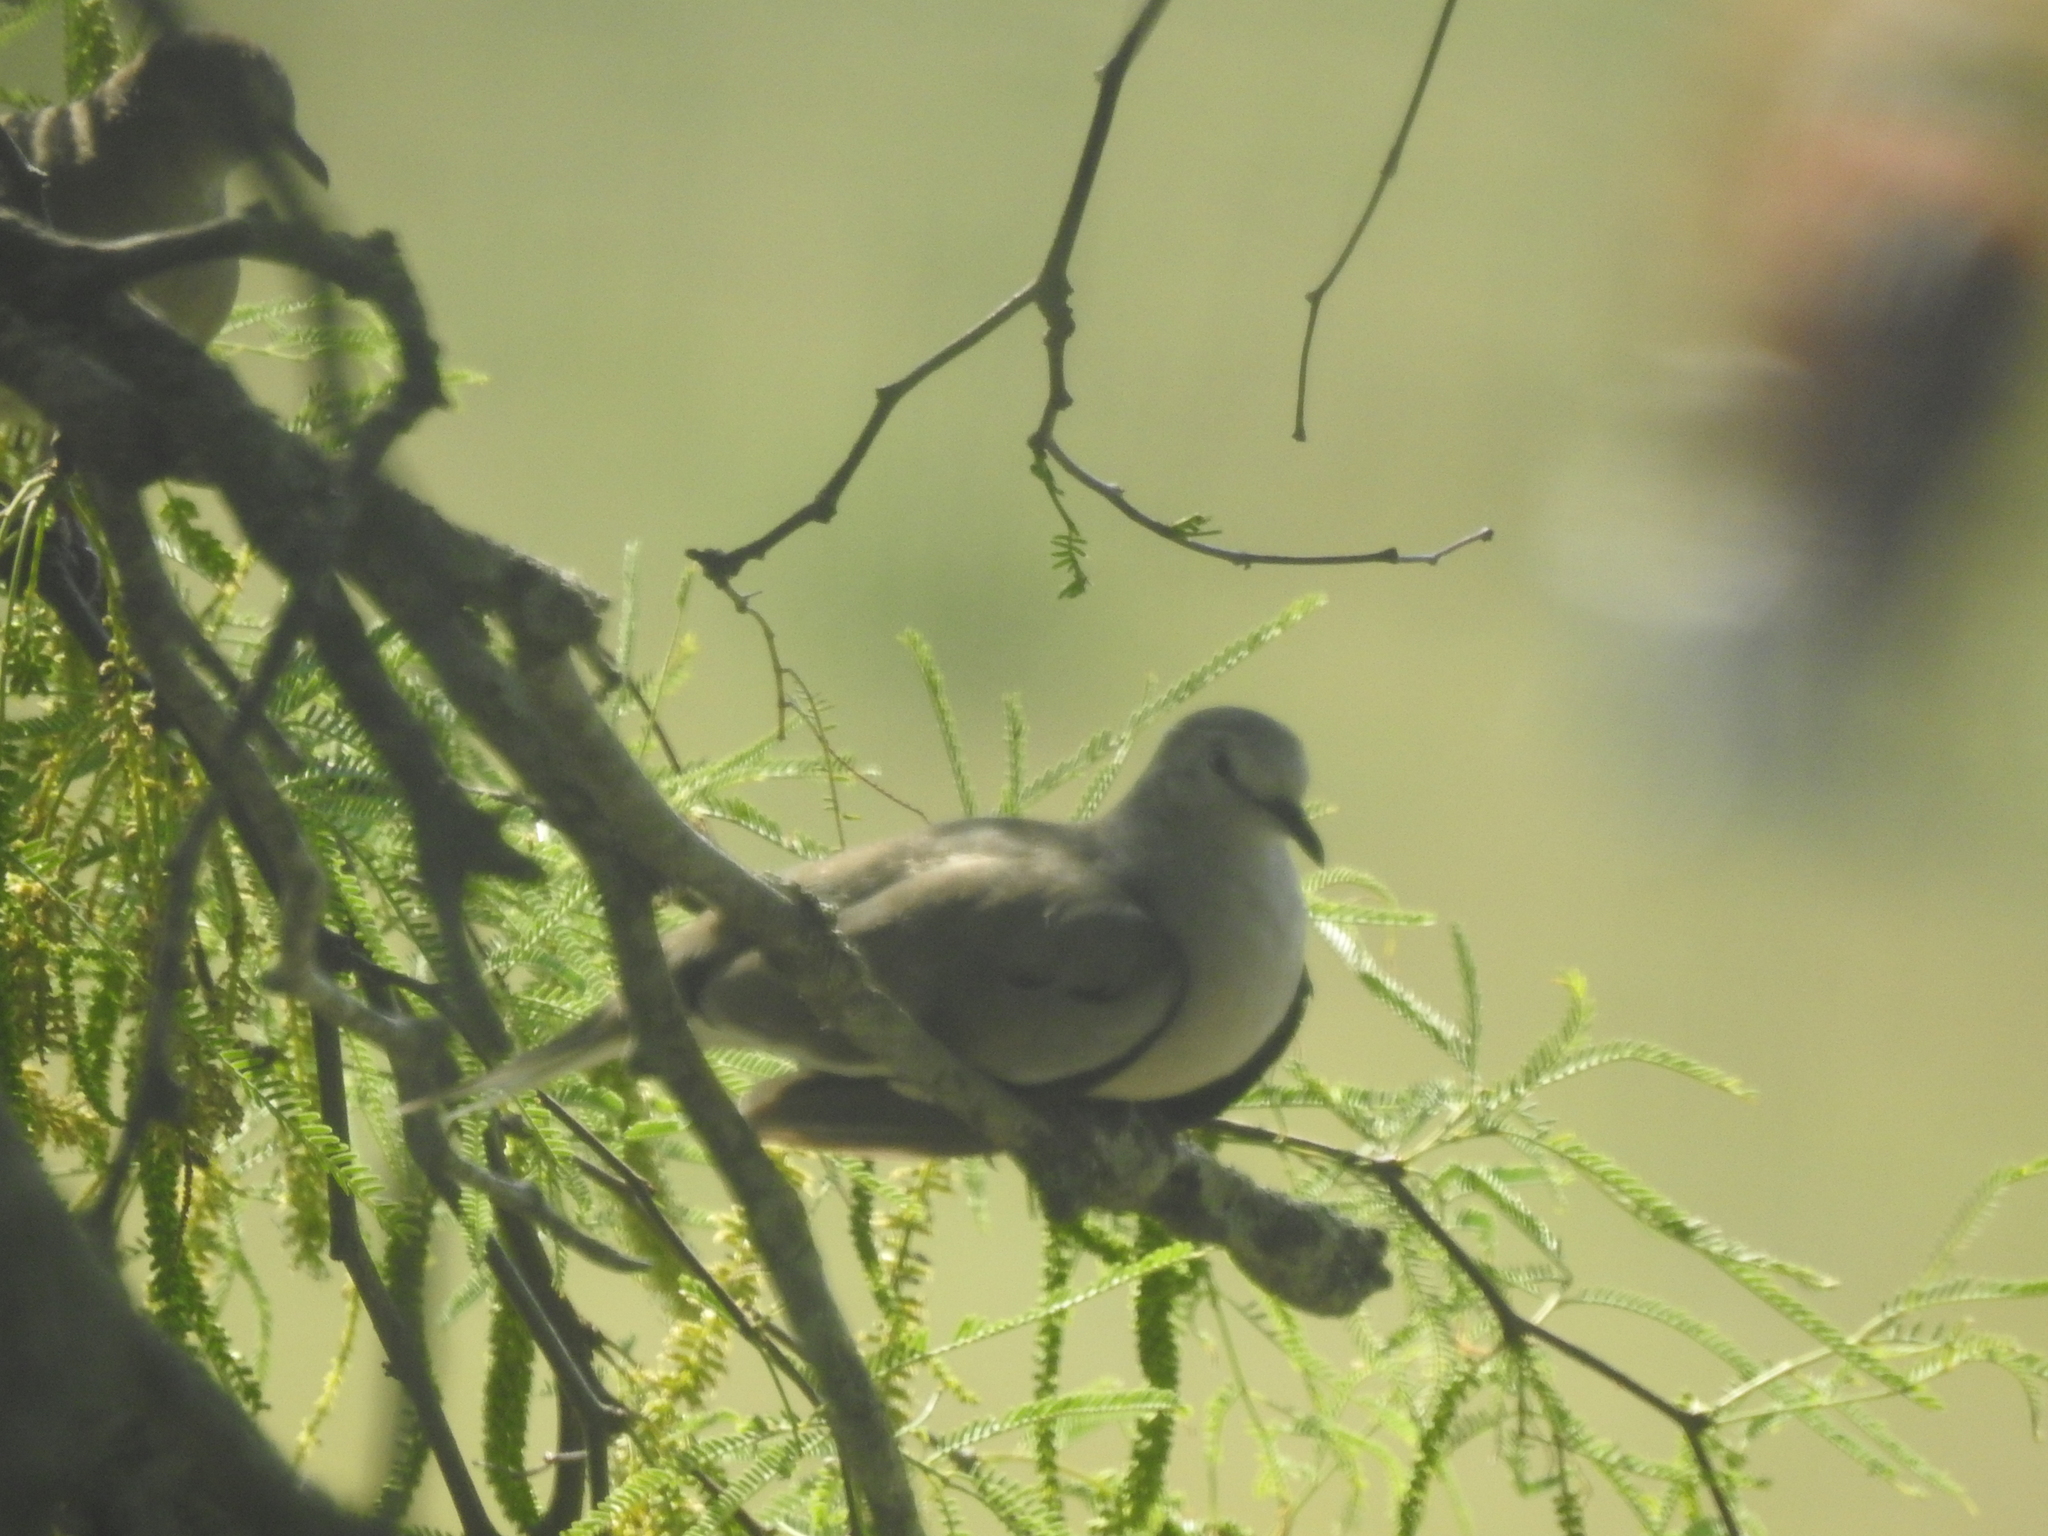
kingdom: Animalia
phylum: Chordata
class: Aves
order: Columbiformes
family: Columbidae
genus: Columbina
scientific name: Columbina picui
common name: Picui ground dove
